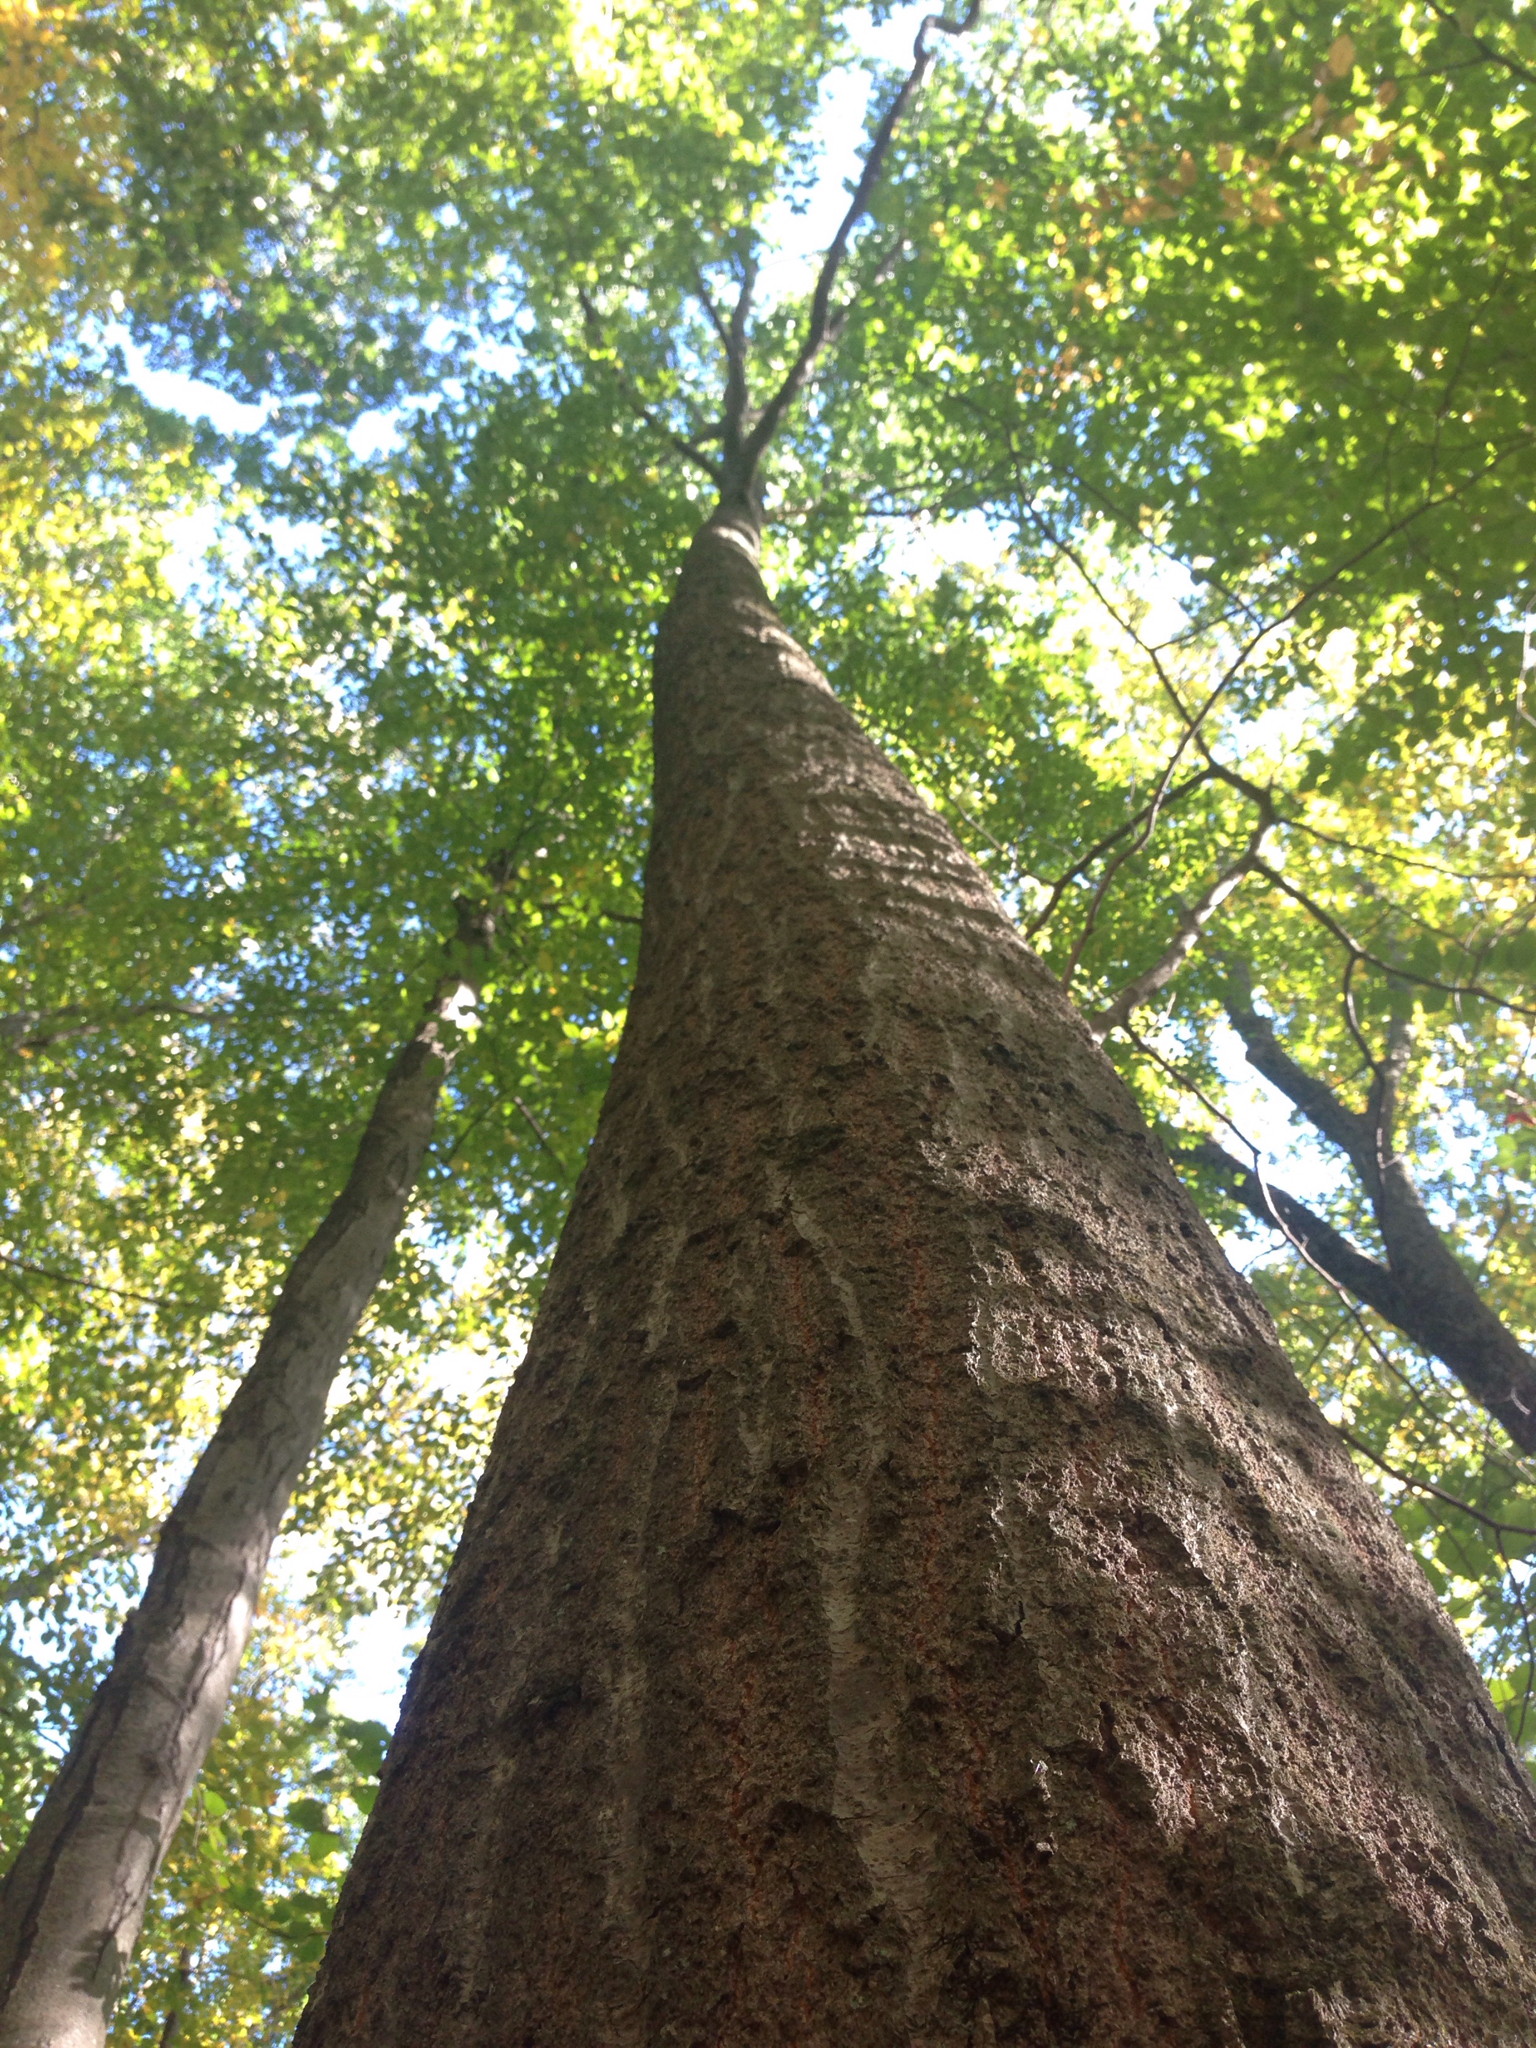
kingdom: Plantae
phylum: Tracheophyta
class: Magnoliopsida
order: Fagales
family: Fagaceae
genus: Quercus
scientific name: Quercus rubra
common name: Red oak
